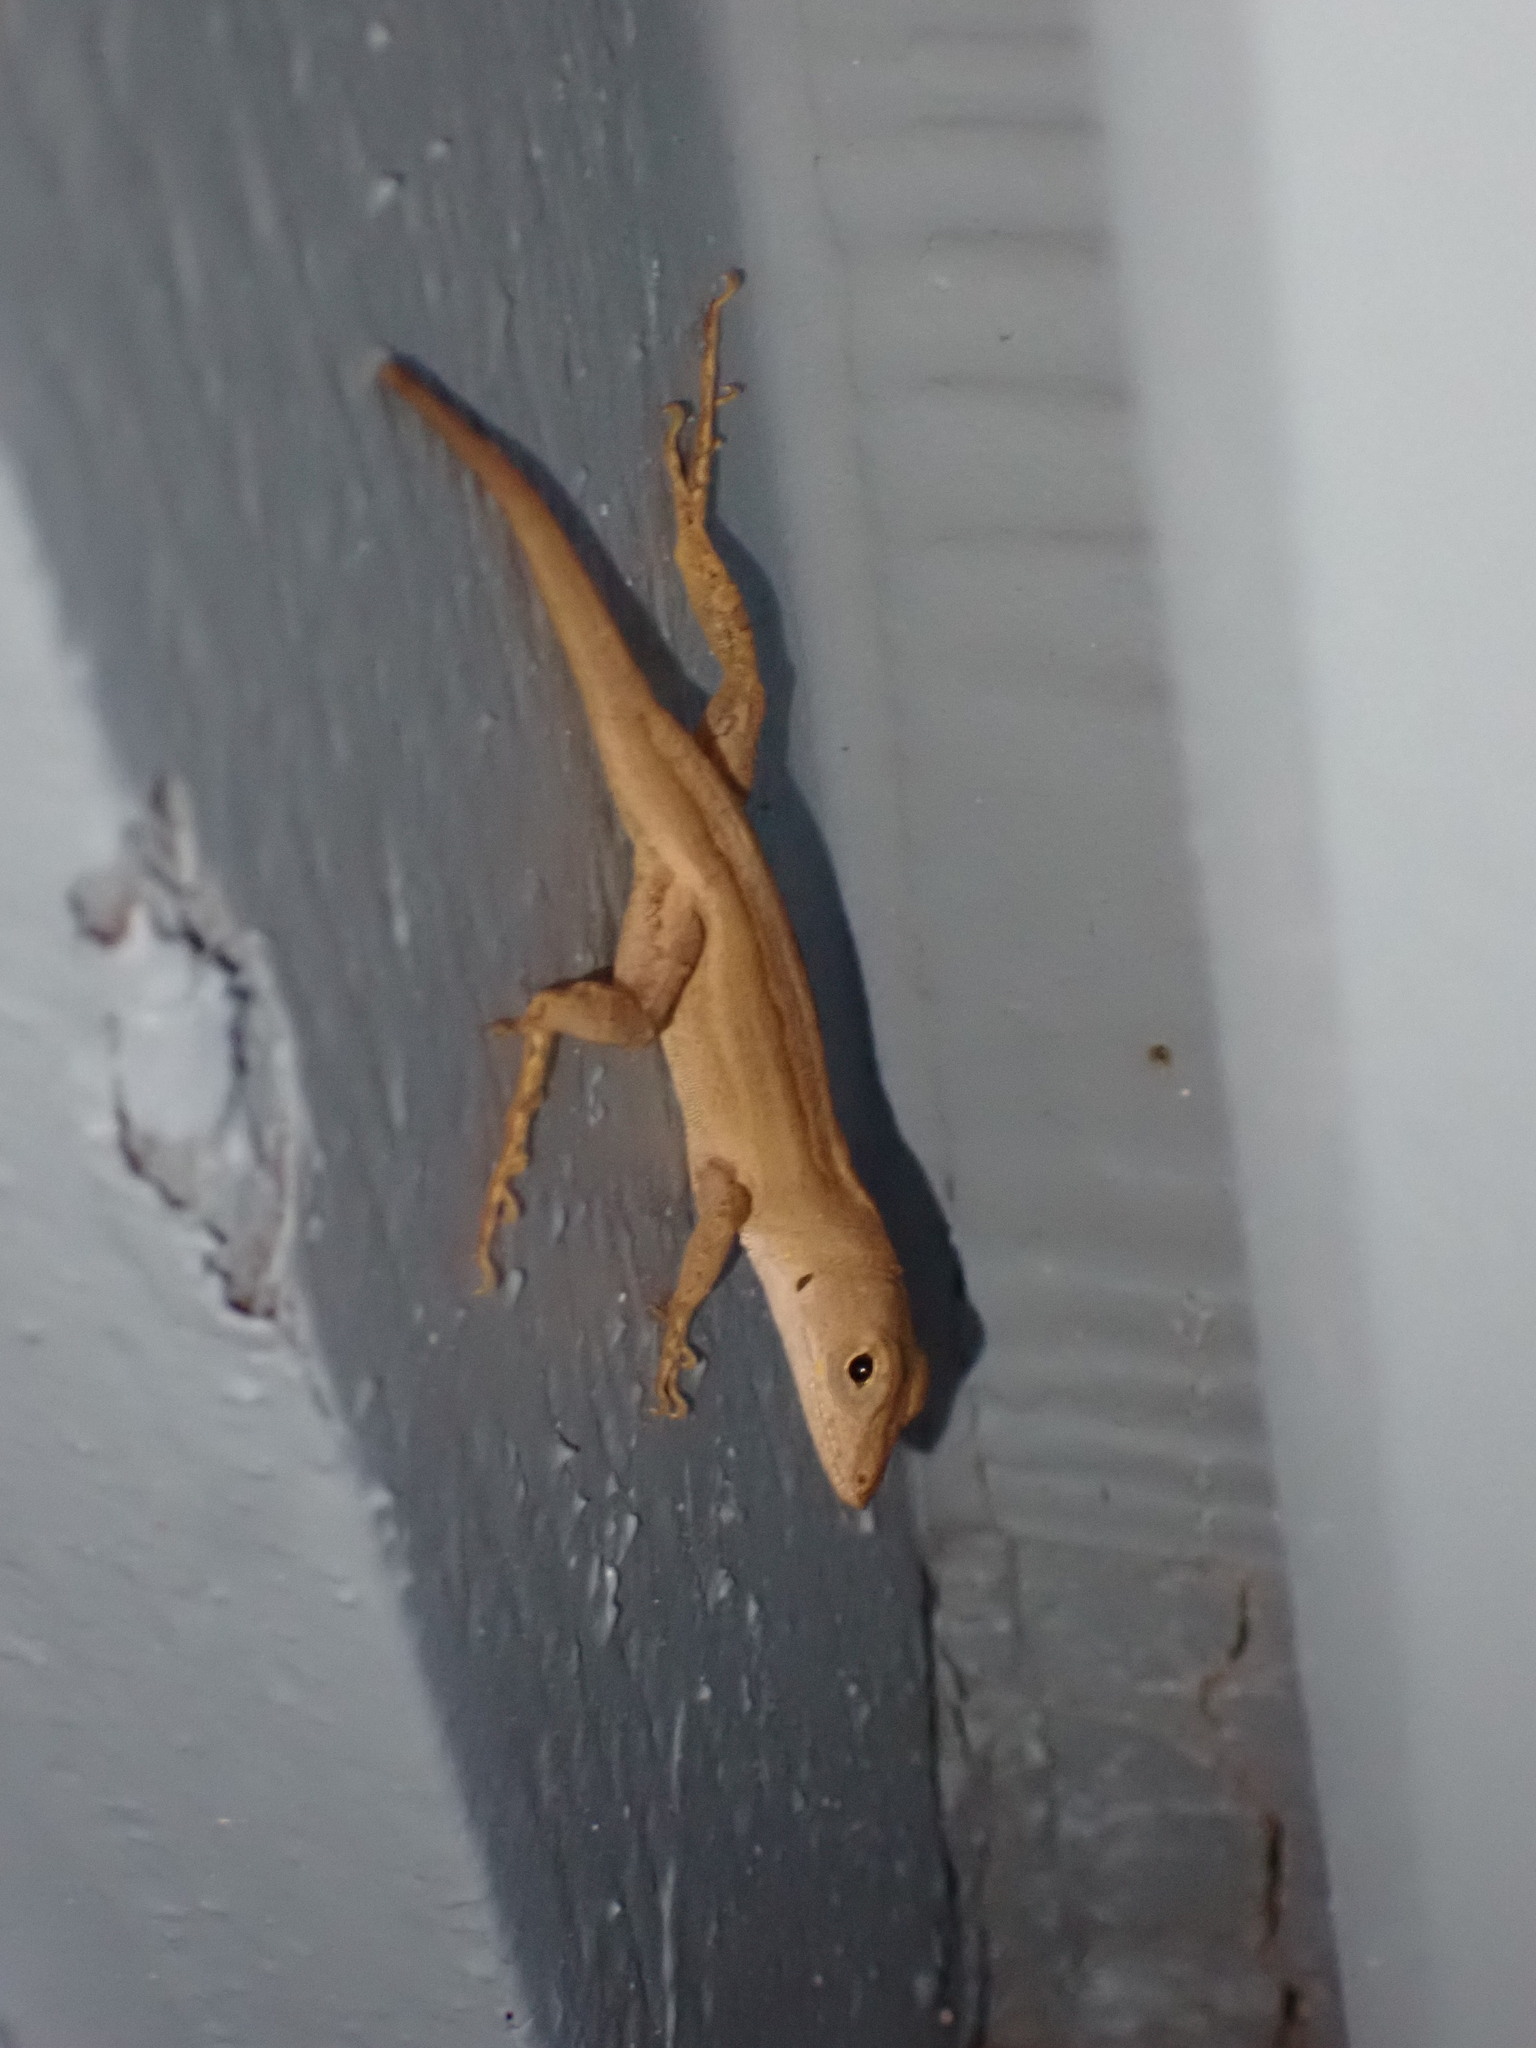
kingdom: Animalia
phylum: Chordata
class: Squamata
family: Dactyloidae
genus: Anolis
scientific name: Anolis sagrei
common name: Brown anole
